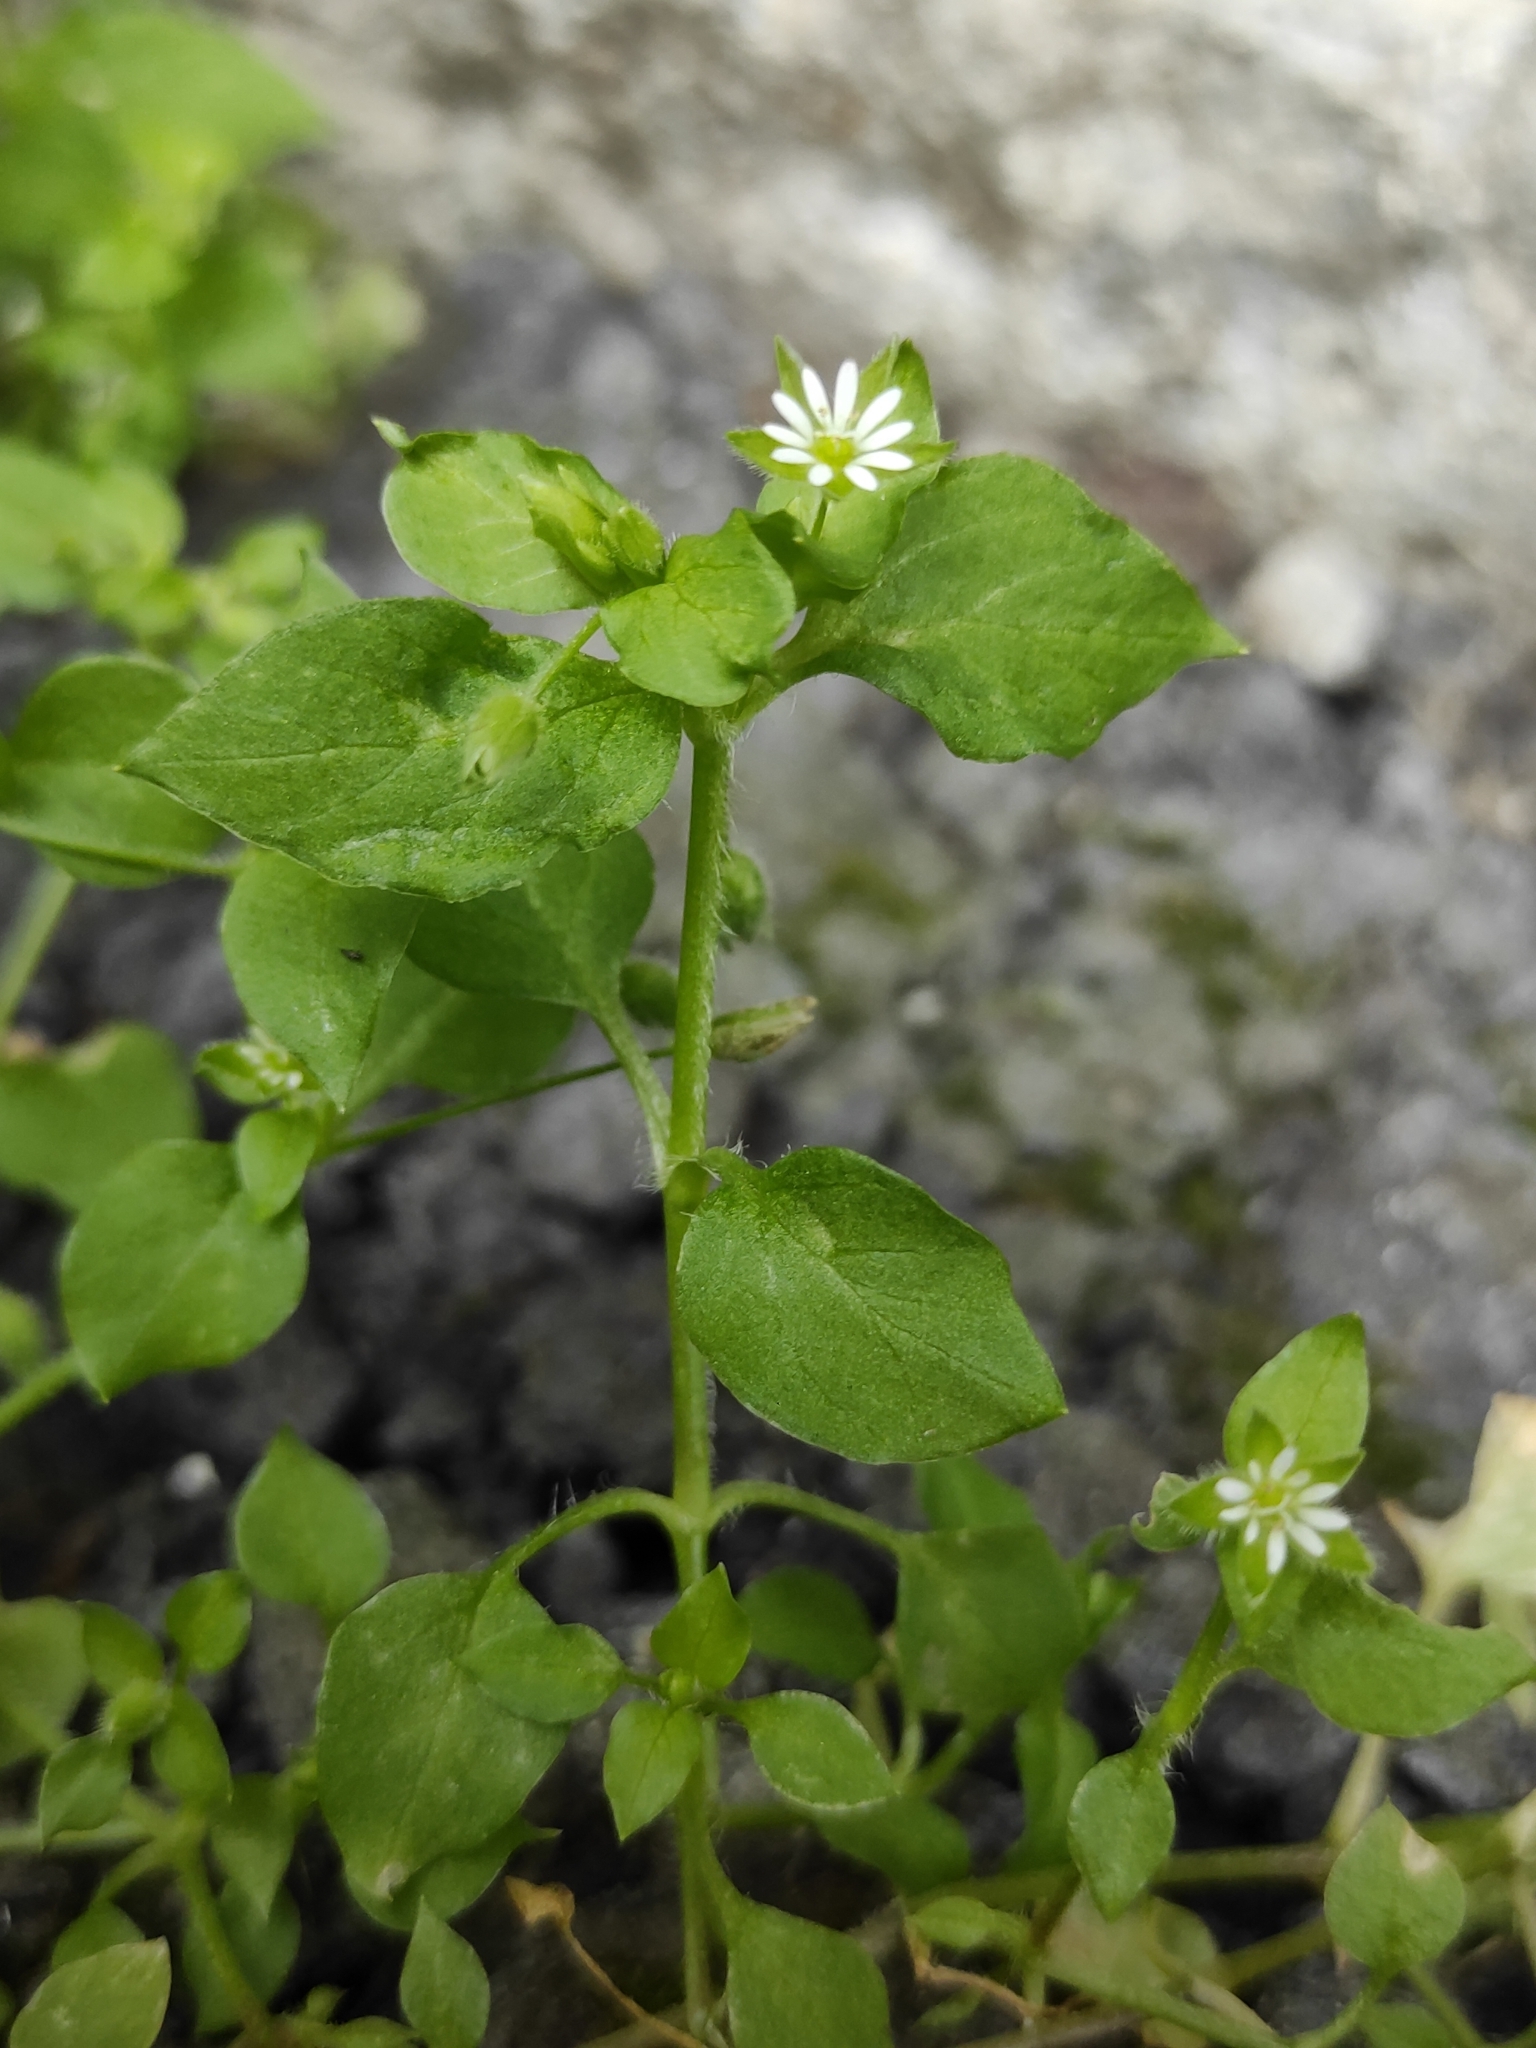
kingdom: Plantae
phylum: Tracheophyta
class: Magnoliopsida
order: Caryophyllales
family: Caryophyllaceae
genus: Stellaria
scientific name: Stellaria media
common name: Common chickweed
